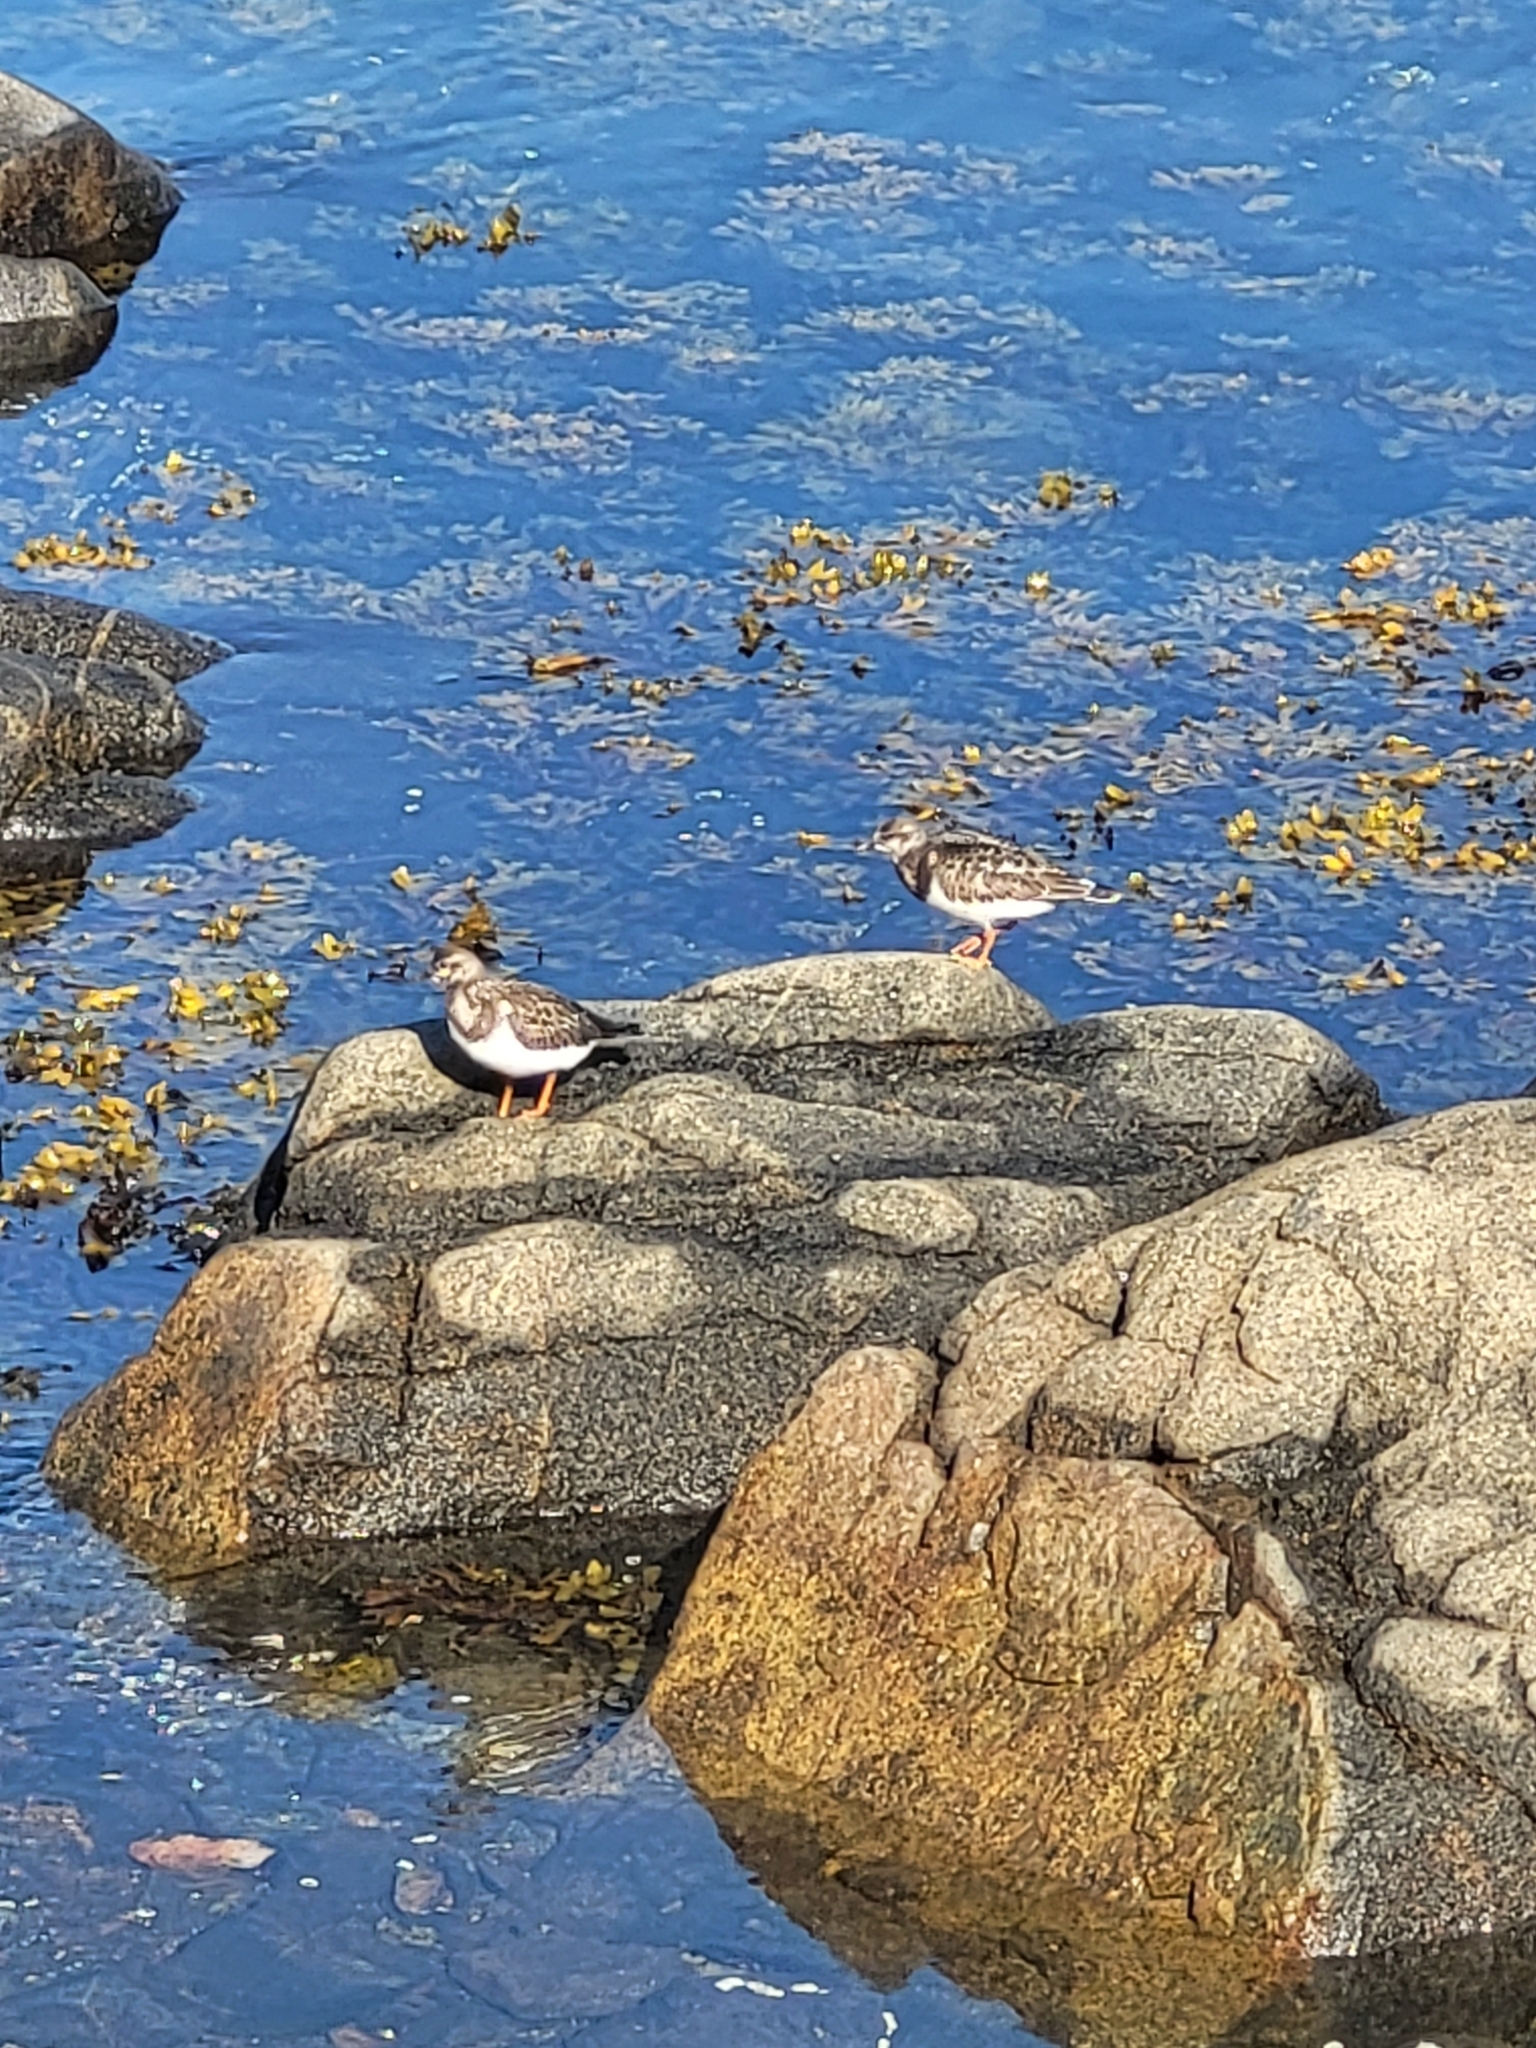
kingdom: Animalia
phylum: Chordata
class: Aves
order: Charadriiformes
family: Scolopacidae
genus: Arenaria
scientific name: Arenaria interpres
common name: Ruddy turnstone
